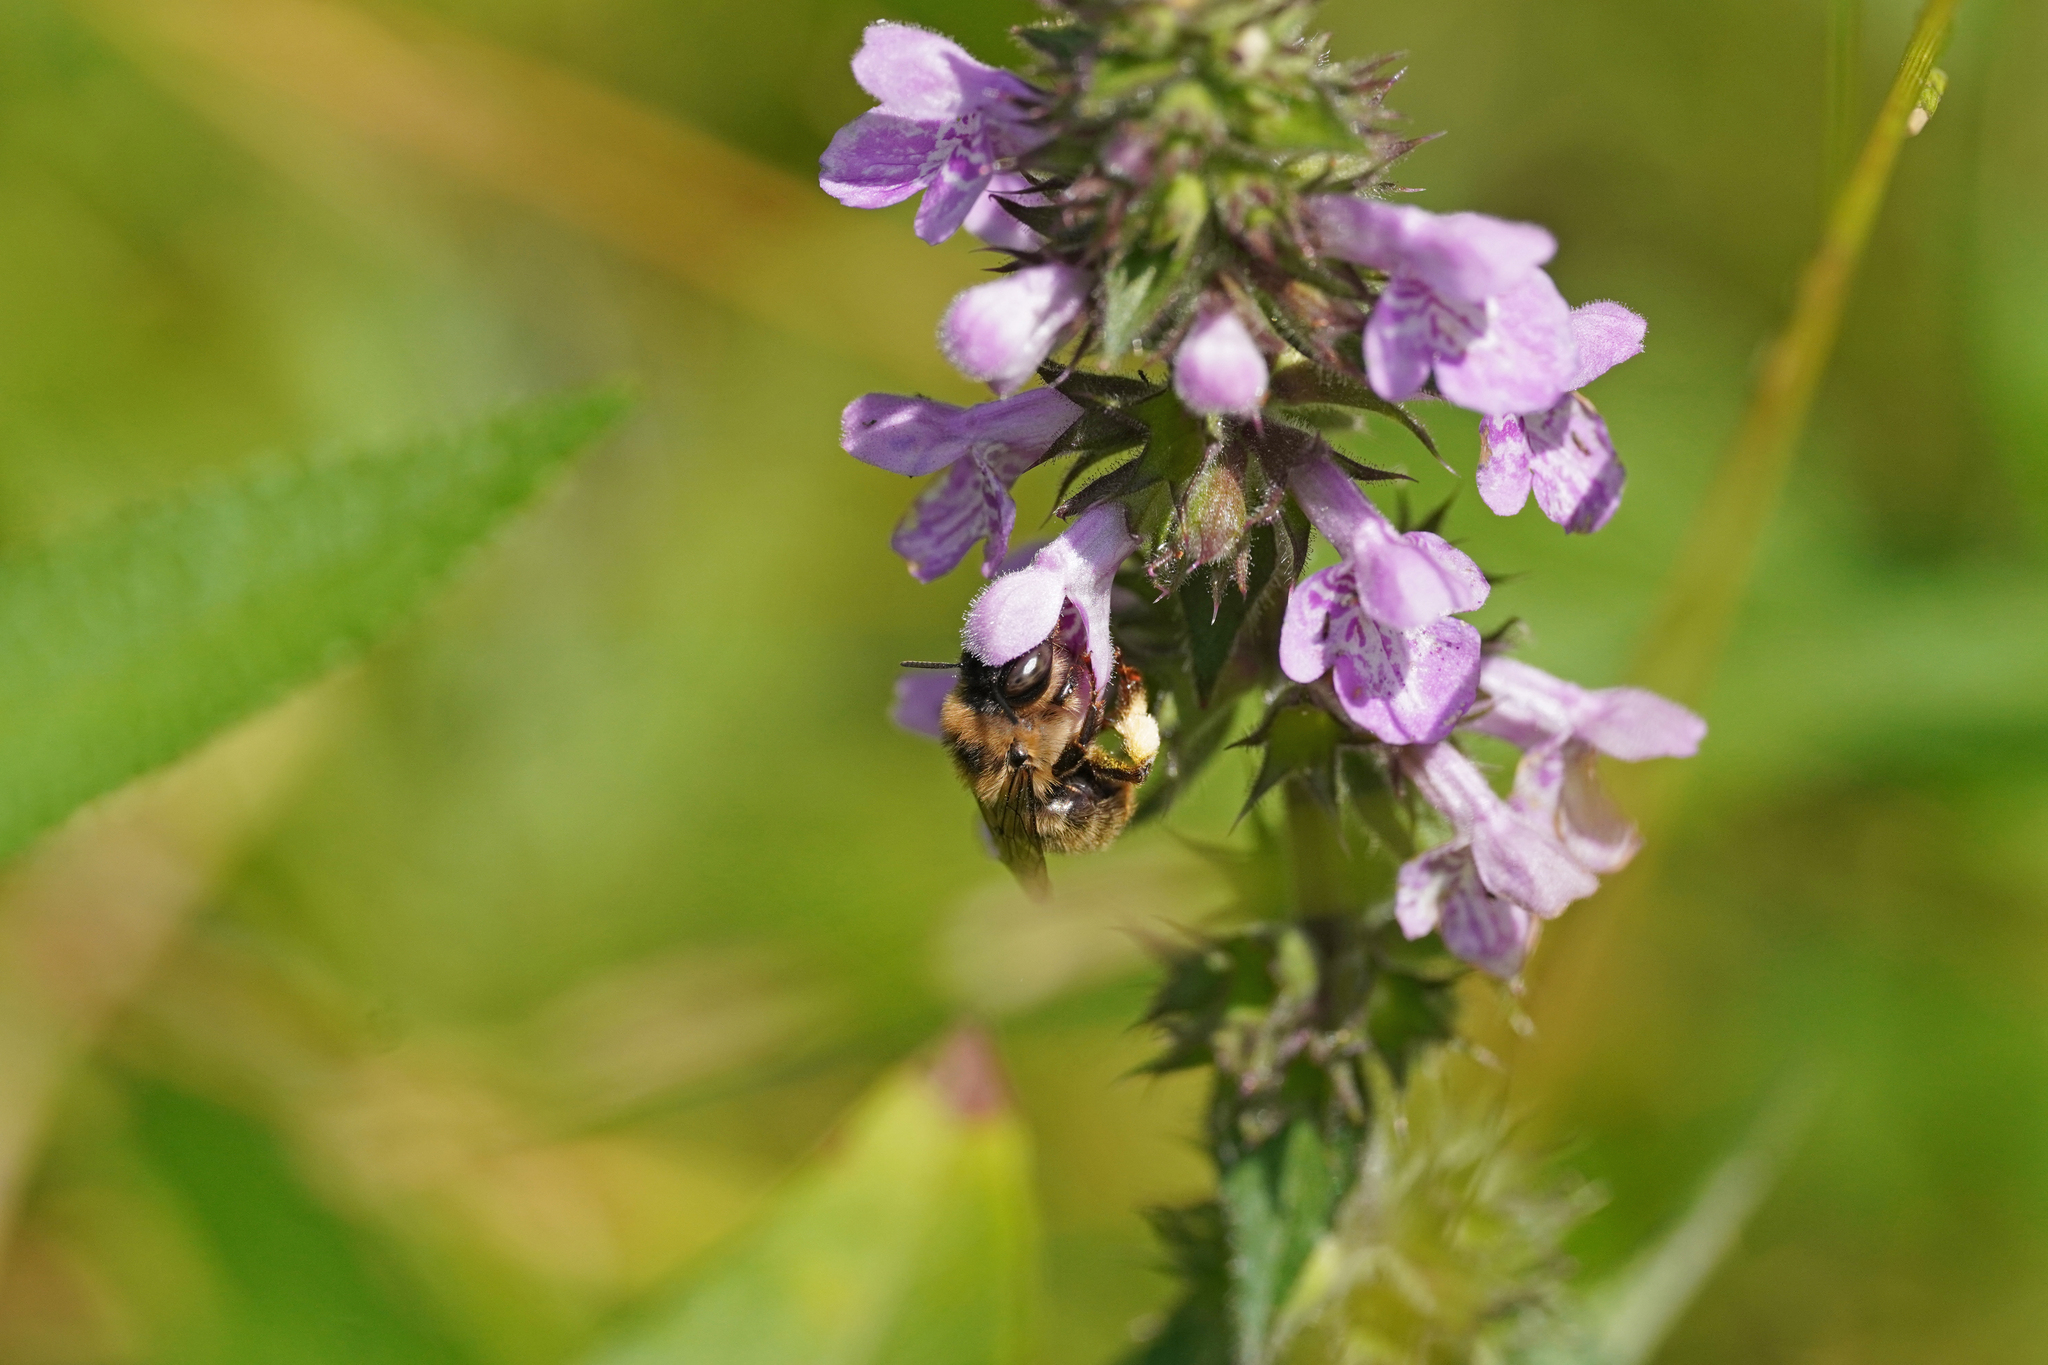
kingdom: Animalia
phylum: Arthropoda
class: Insecta
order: Hymenoptera
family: Apidae
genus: Anthophora
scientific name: Anthophora furcata
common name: Fork-tailed flower bee
